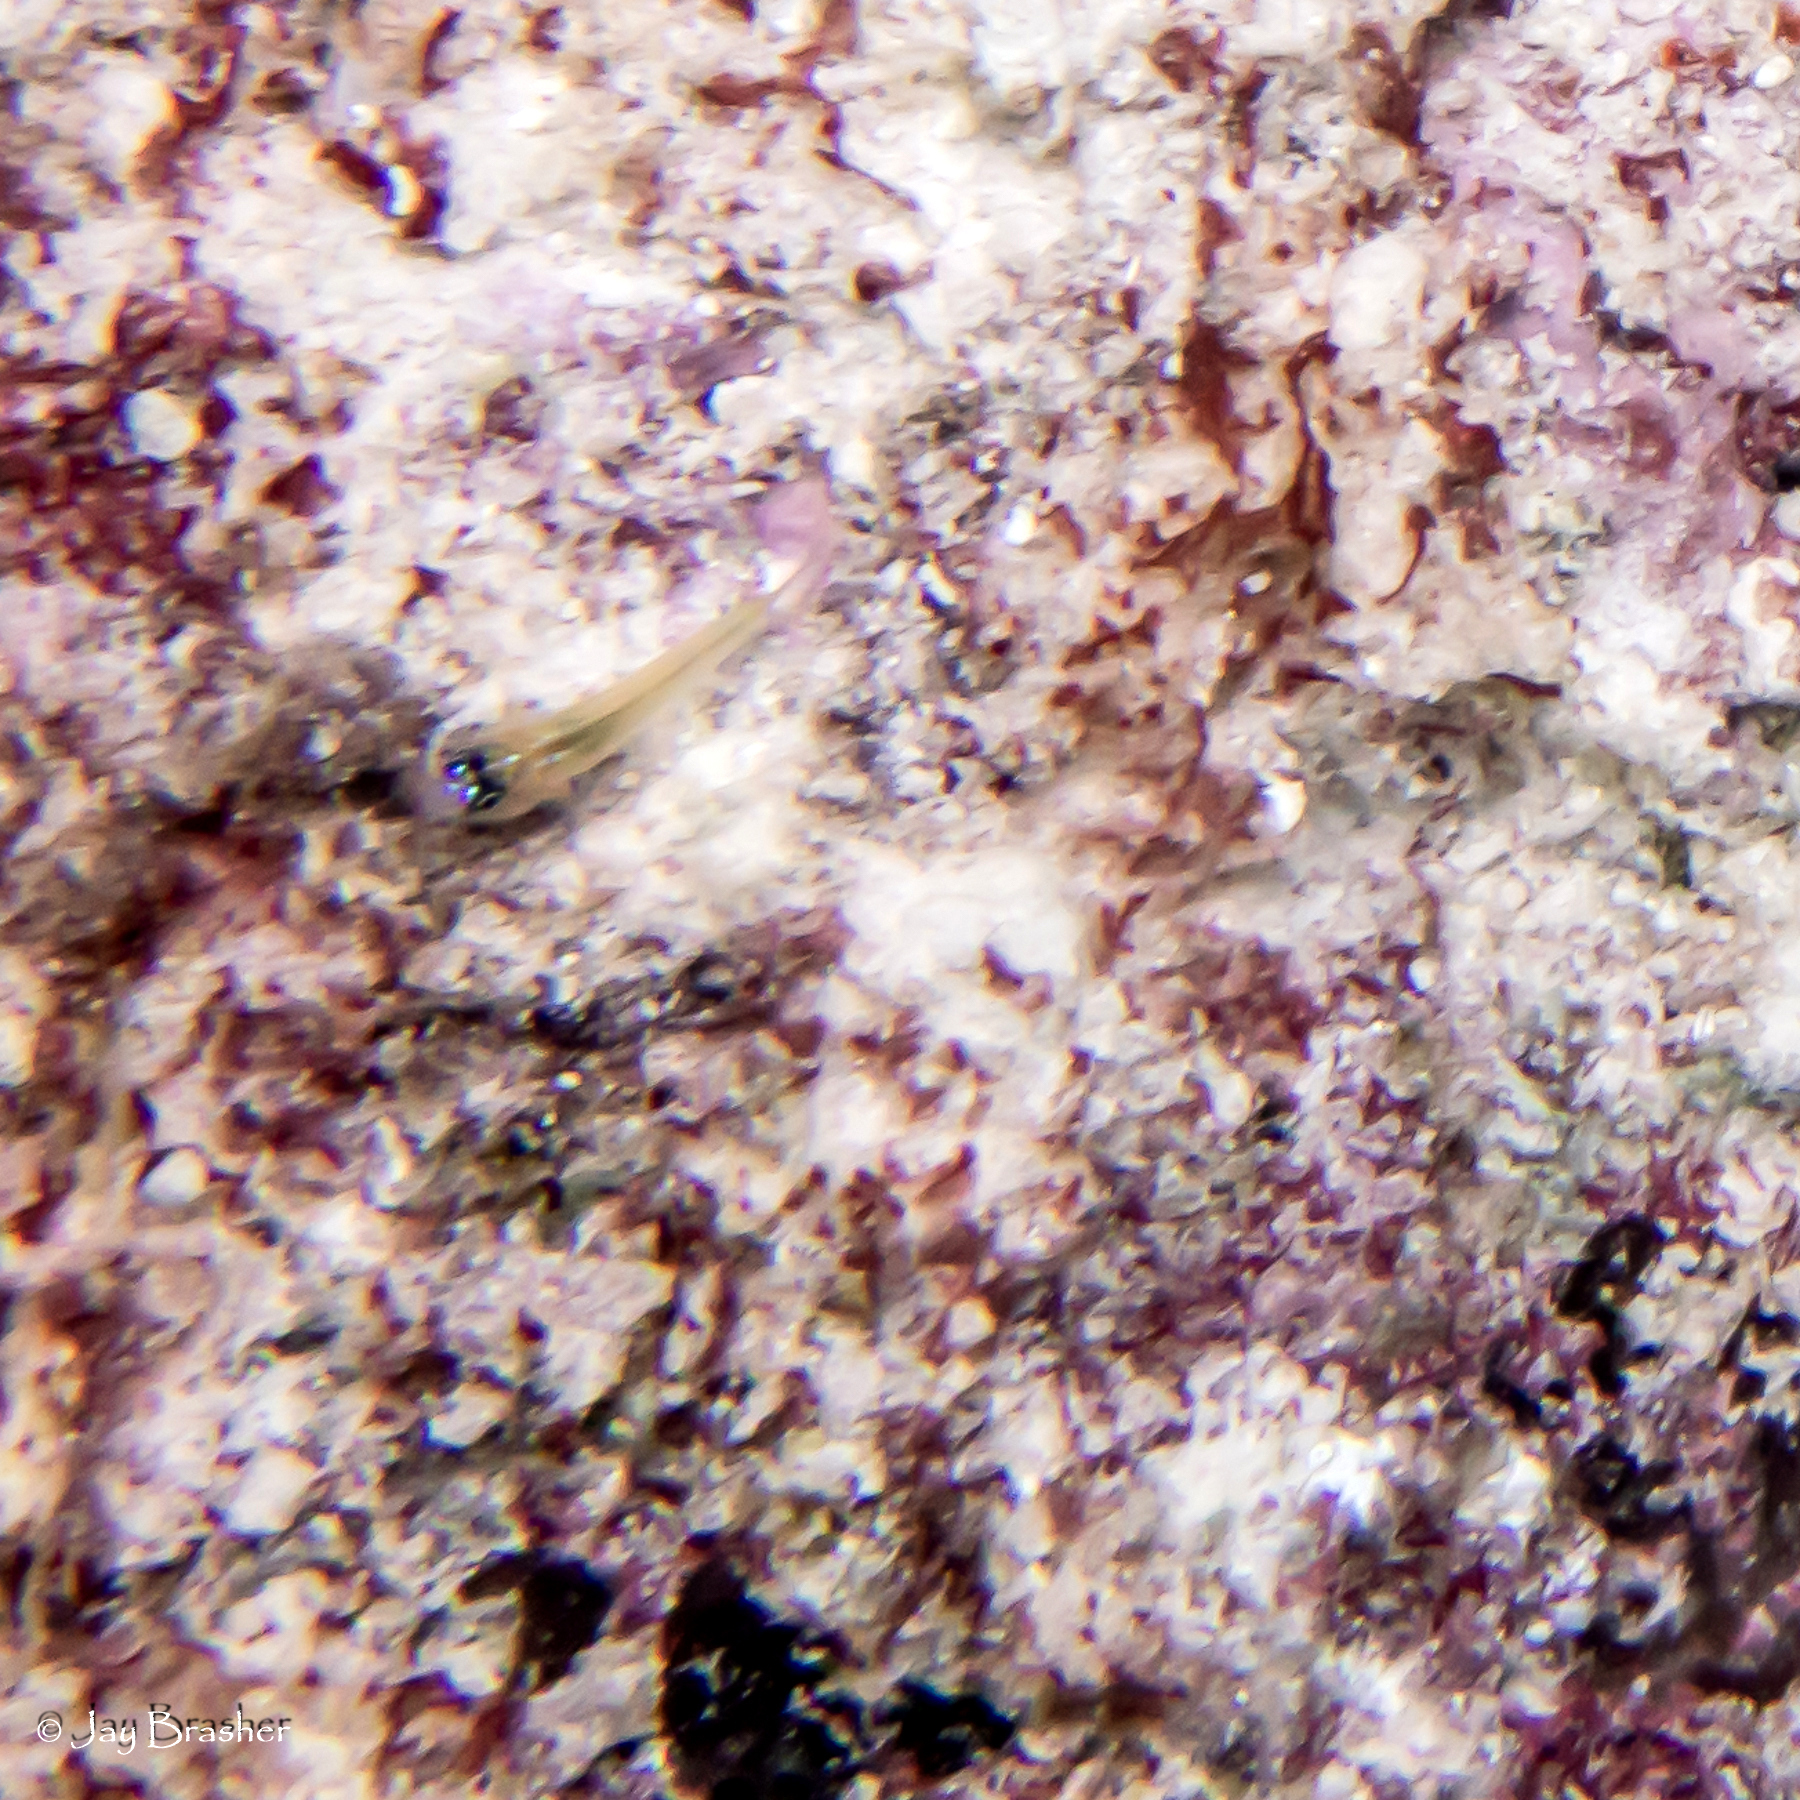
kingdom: Animalia
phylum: Chordata
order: Perciformes
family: Gobiidae
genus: Coryphopterus
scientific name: Coryphopterus lipernes
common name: Peppermint goby
